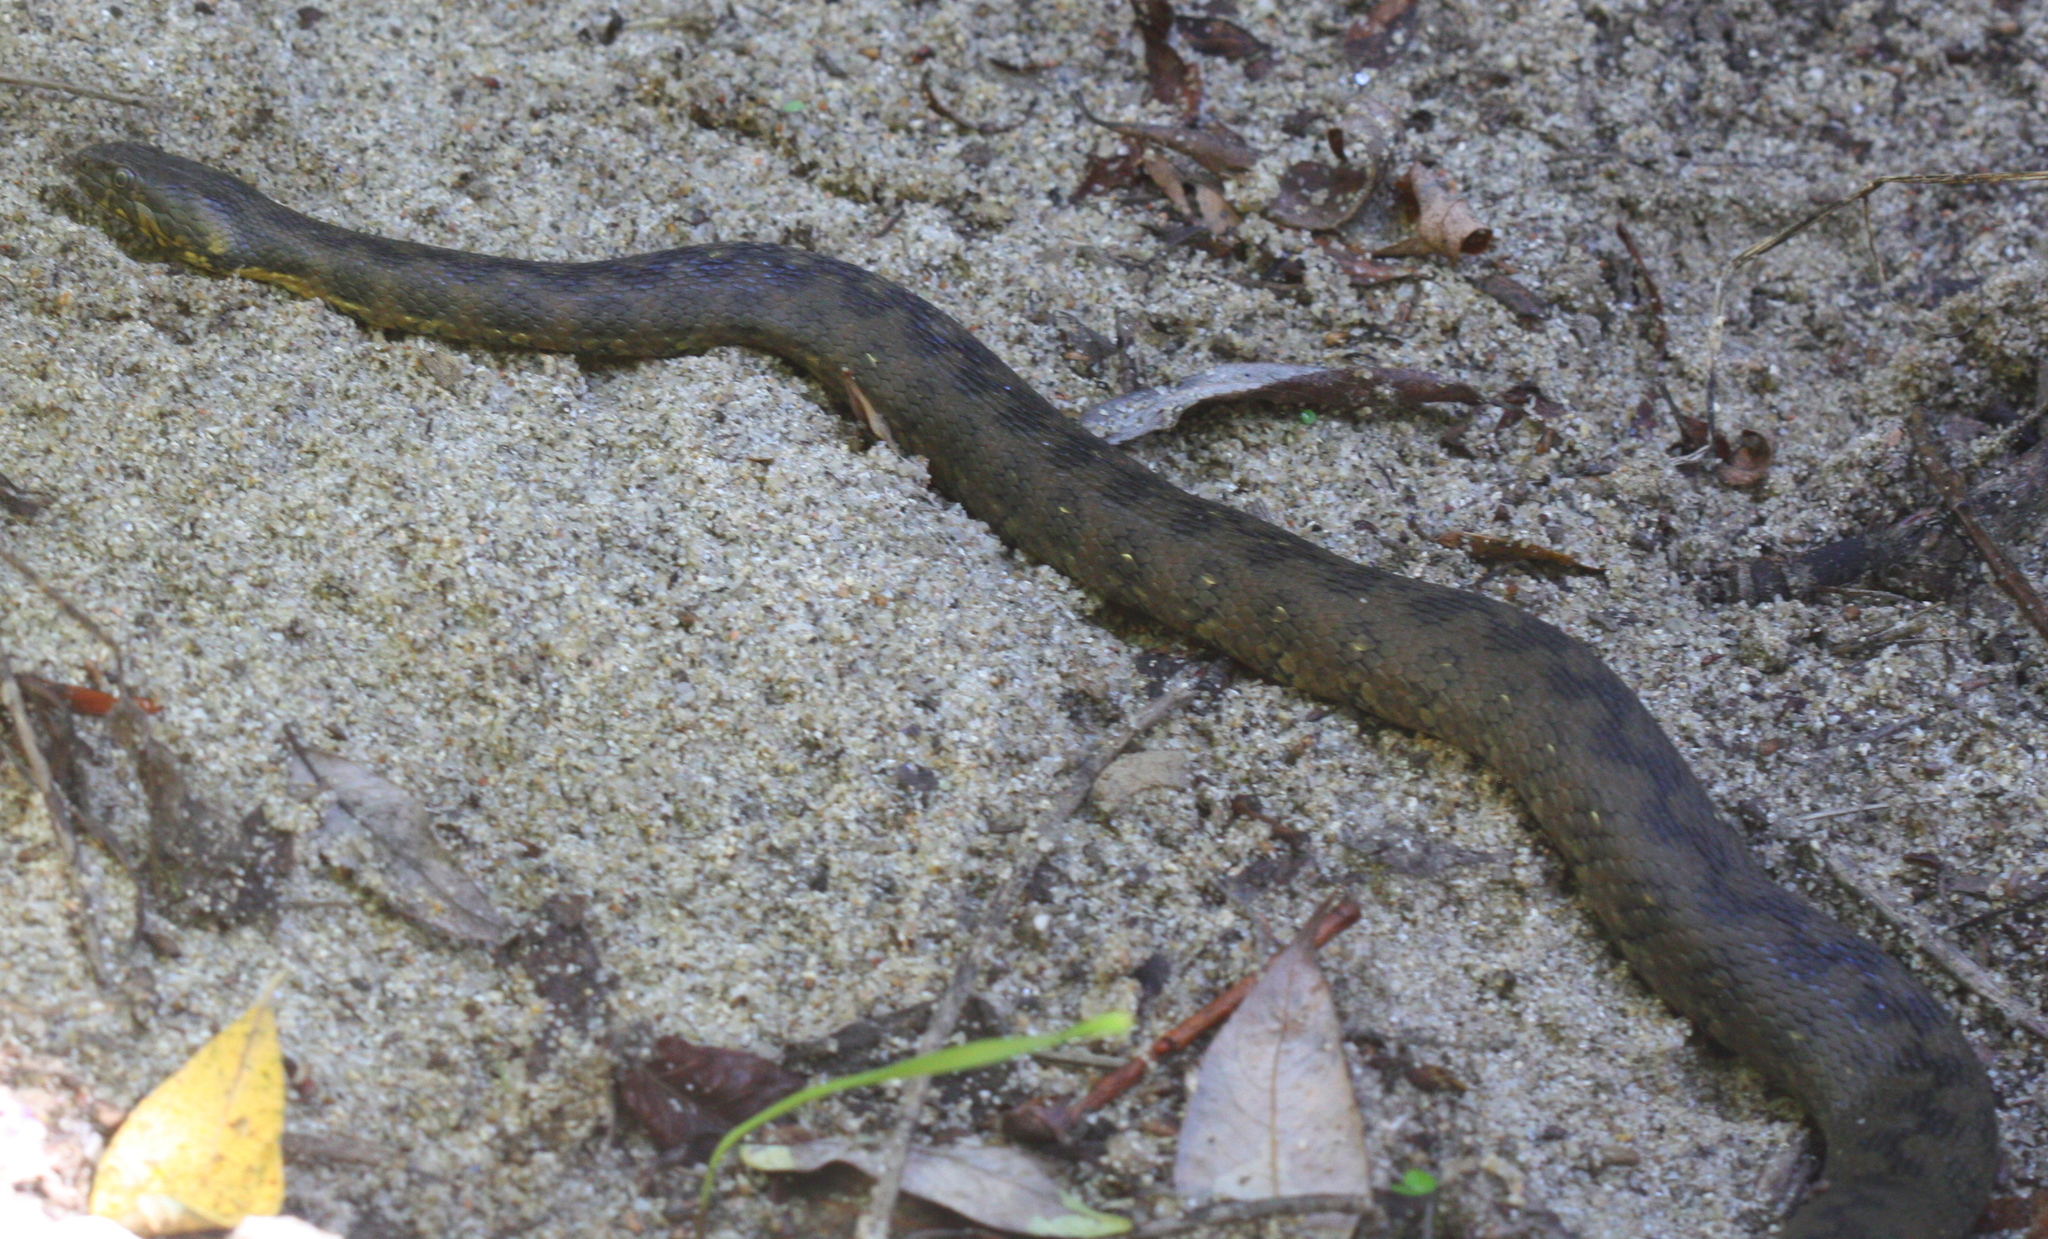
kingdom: Animalia
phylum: Chordata
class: Squamata
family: Colubridae
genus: Natrix
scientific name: Natrix maura
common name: Viperine water snake
